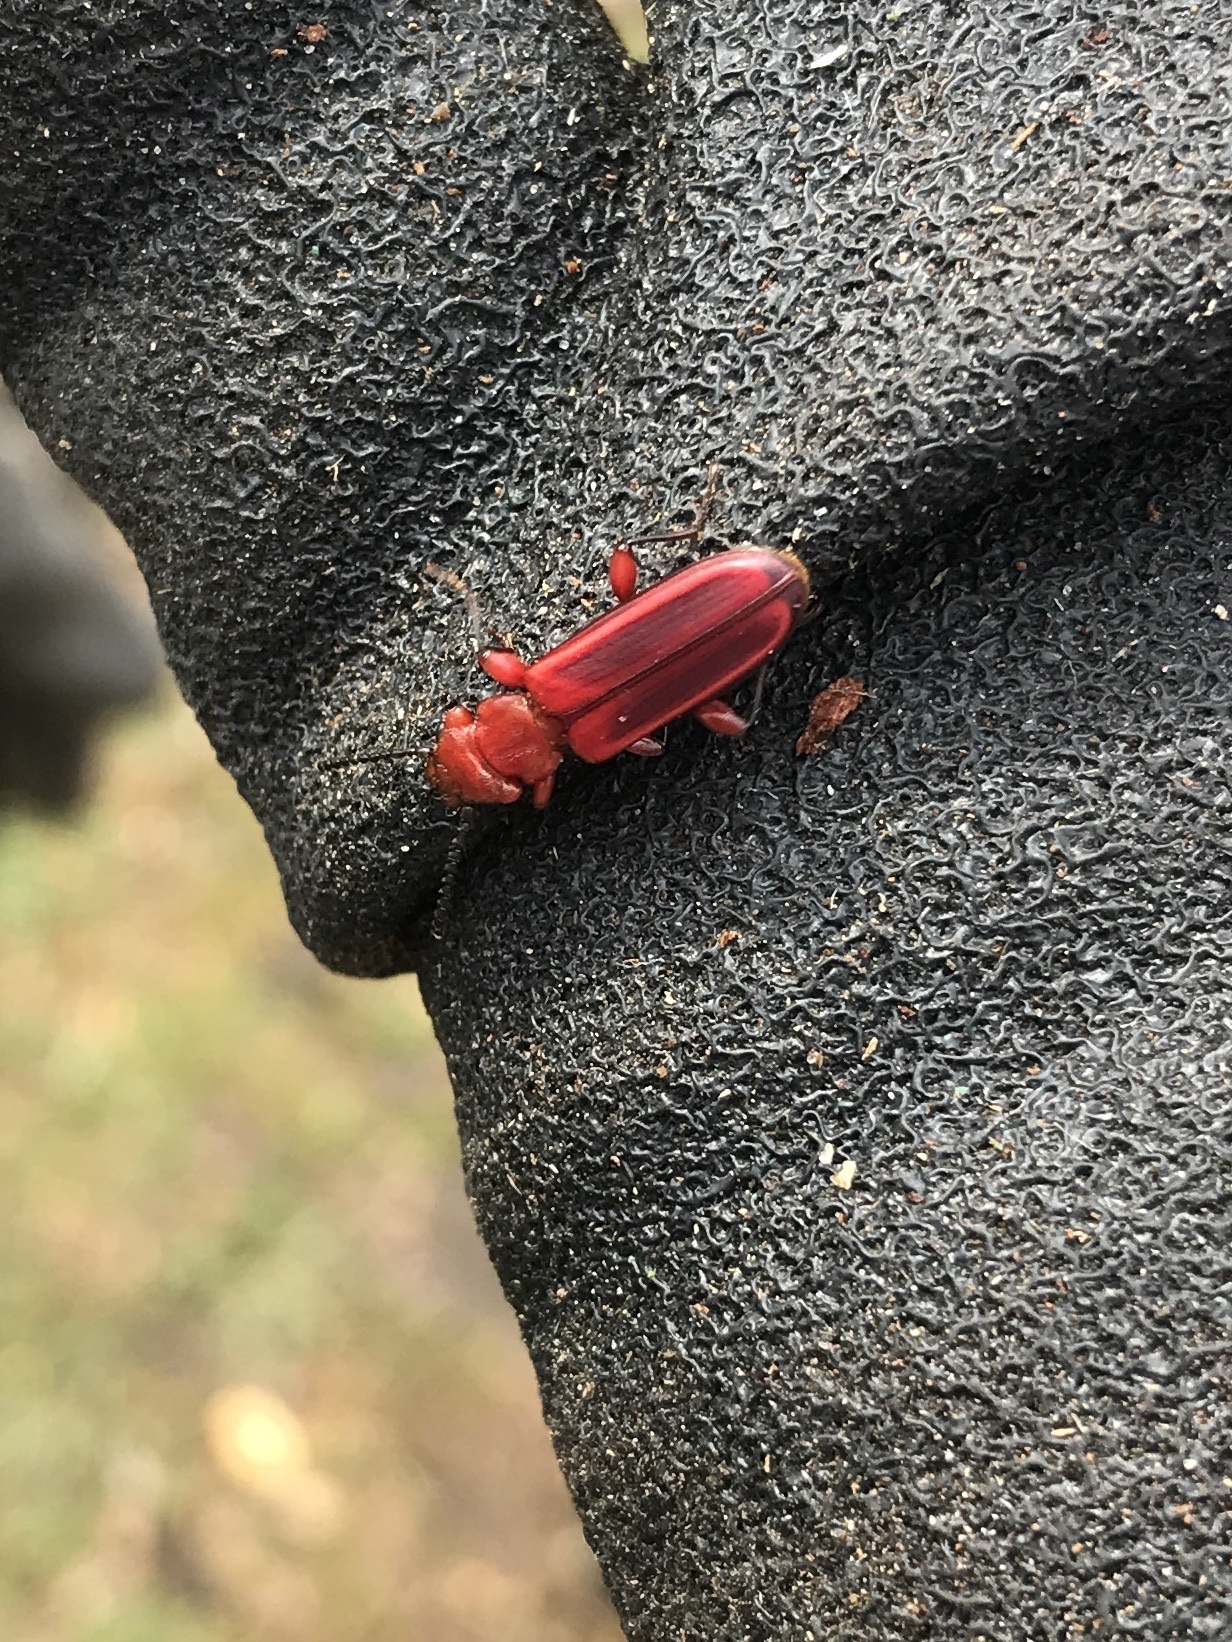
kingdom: Animalia
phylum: Arthropoda
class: Insecta
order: Coleoptera
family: Cucujidae
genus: Cucujus
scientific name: Cucujus clavipes
